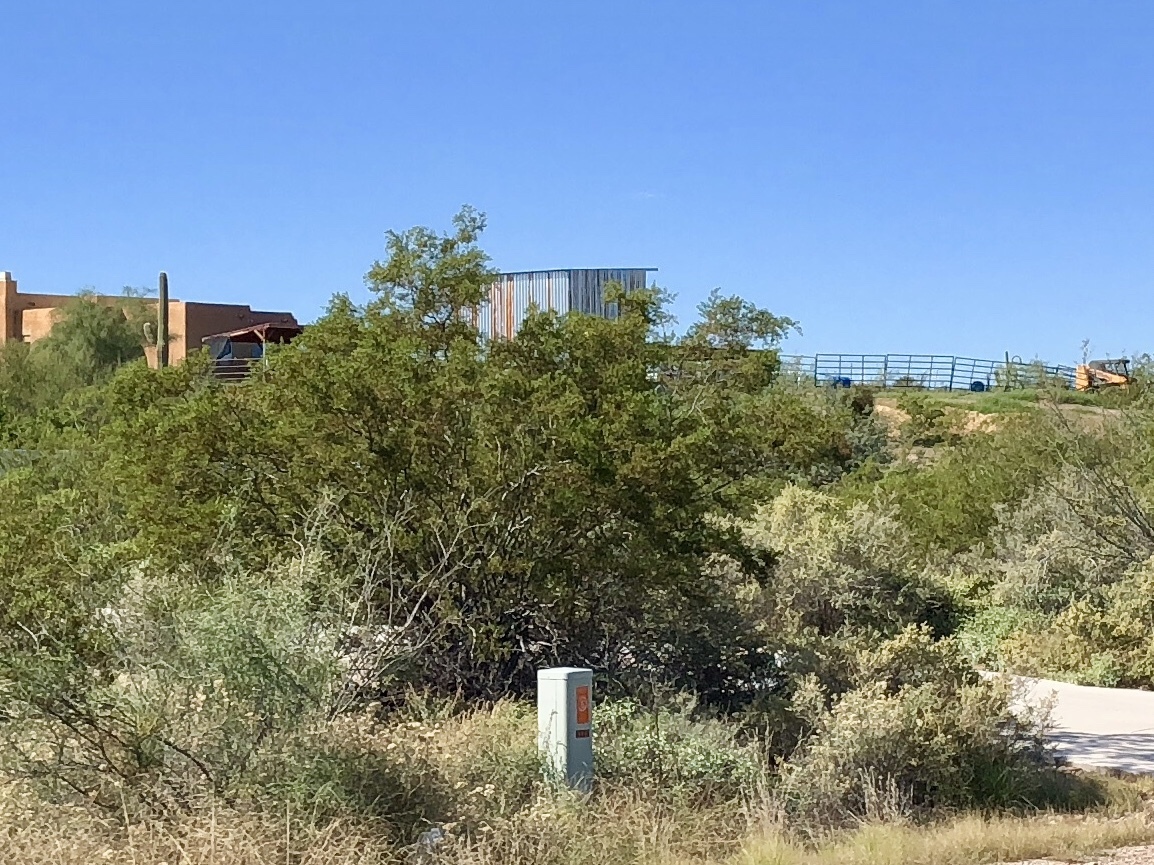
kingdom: Plantae
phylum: Tracheophyta
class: Magnoliopsida
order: Zygophyllales
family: Zygophyllaceae
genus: Larrea
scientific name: Larrea tridentata
